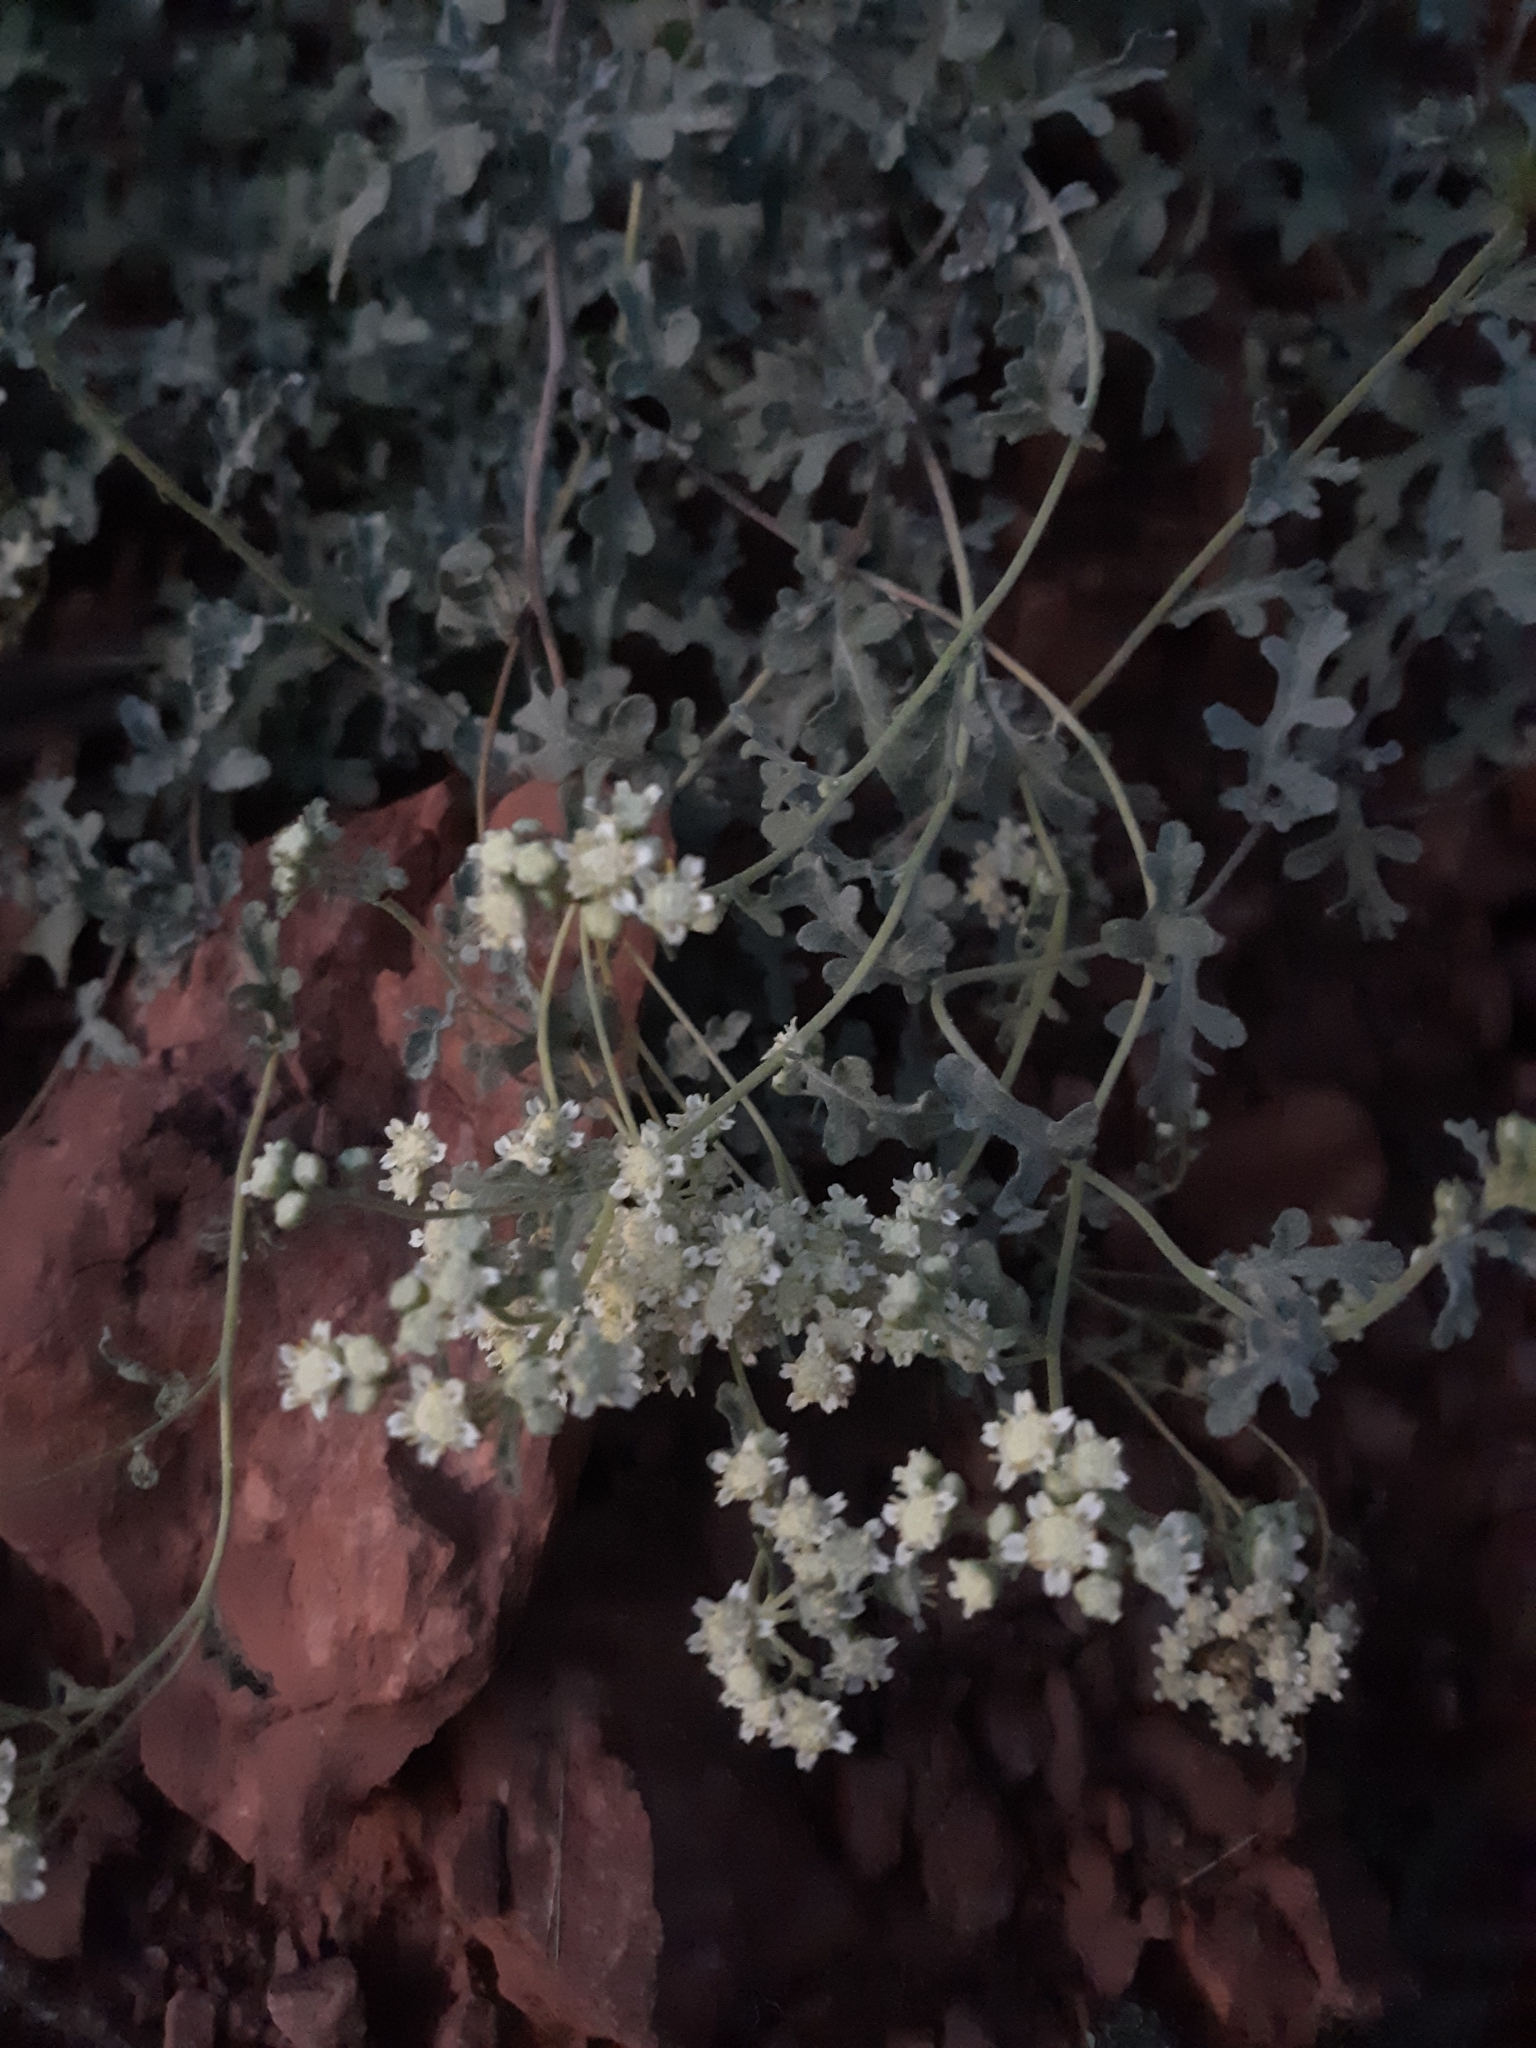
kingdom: Plantae
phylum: Tracheophyta
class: Magnoliopsida
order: Asterales
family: Asteraceae
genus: Parthenium
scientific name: Parthenium incanum
